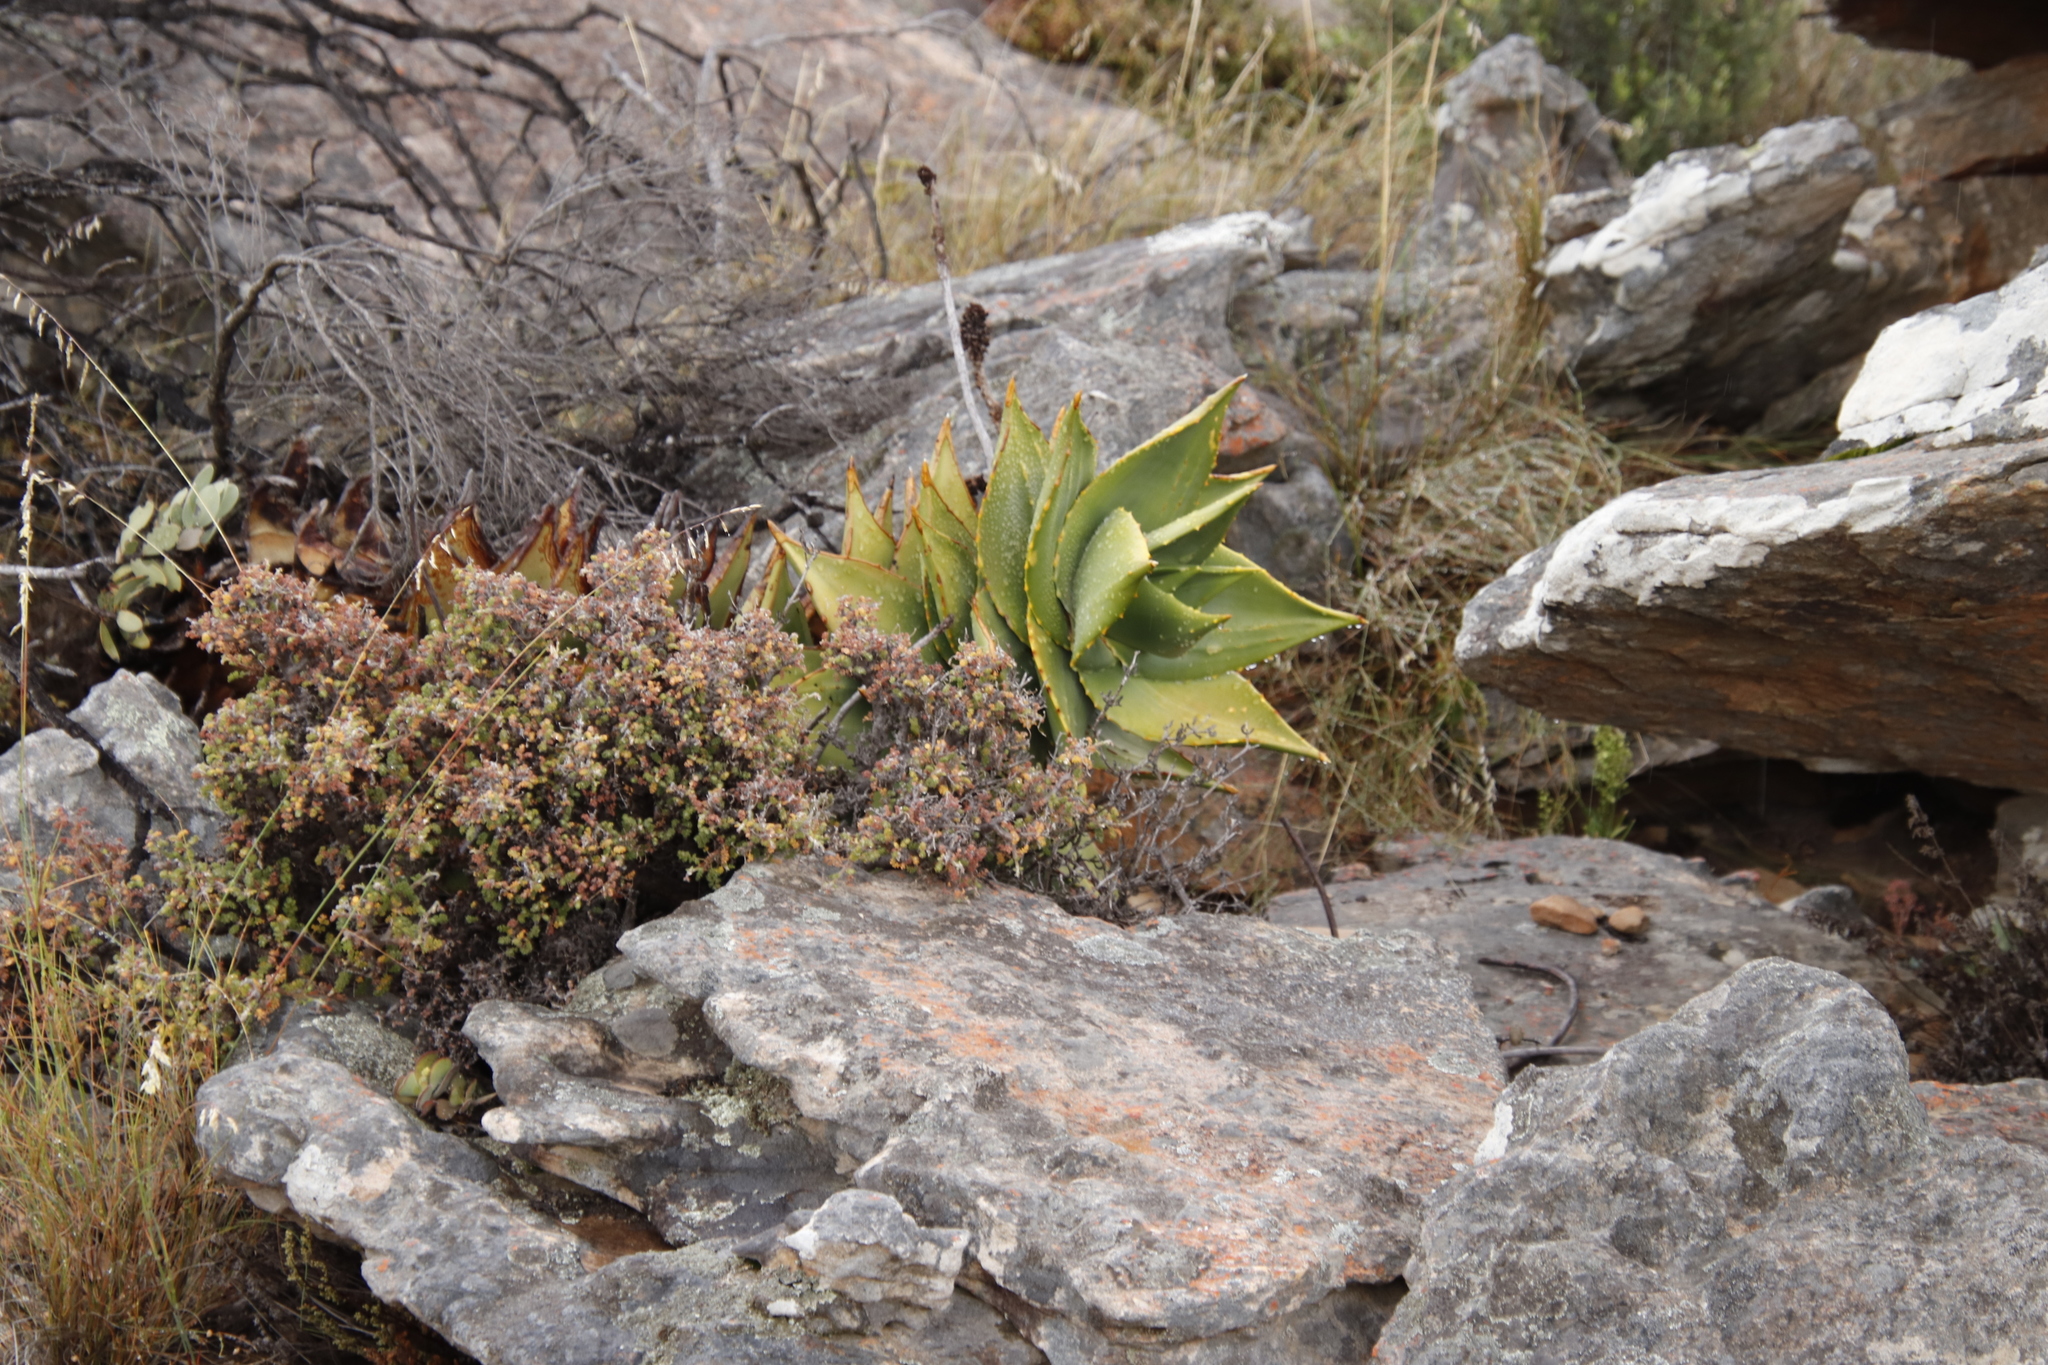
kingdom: Plantae
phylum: Tracheophyta
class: Liliopsida
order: Asparagales
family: Asphodelaceae
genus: Aloe
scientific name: Aloe perfoliata
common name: Mitra aloe
